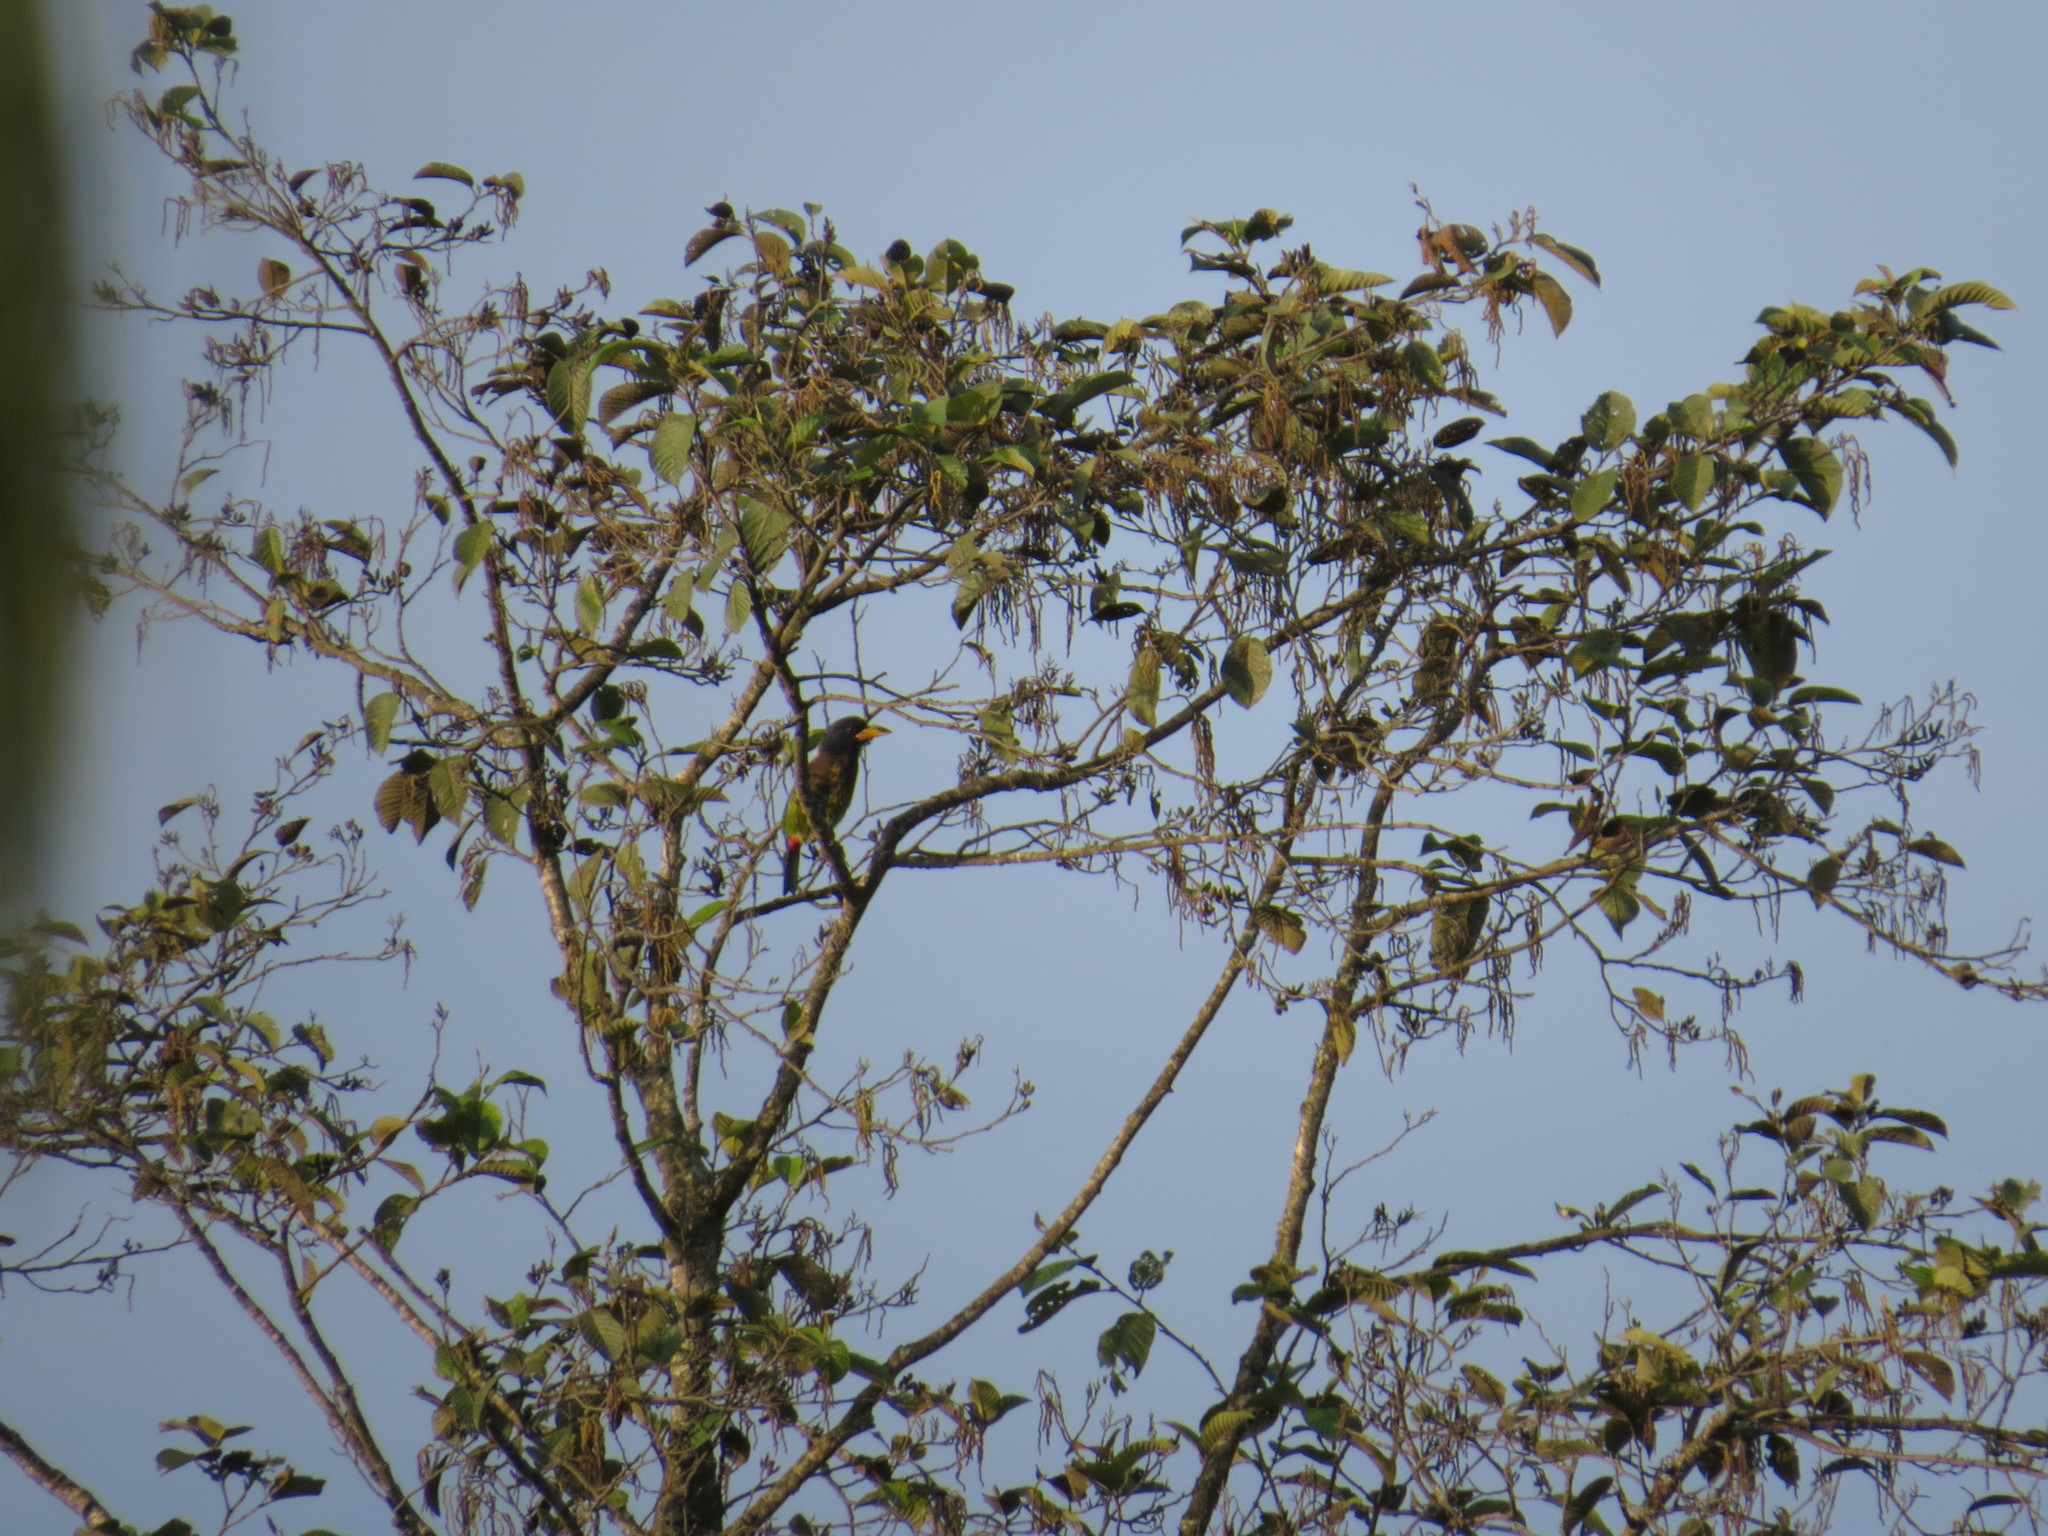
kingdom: Animalia
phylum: Chordata
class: Aves
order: Piciformes
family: Megalaimidae
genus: Psilopogon
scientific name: Psilopogon virens
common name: Great barbet
